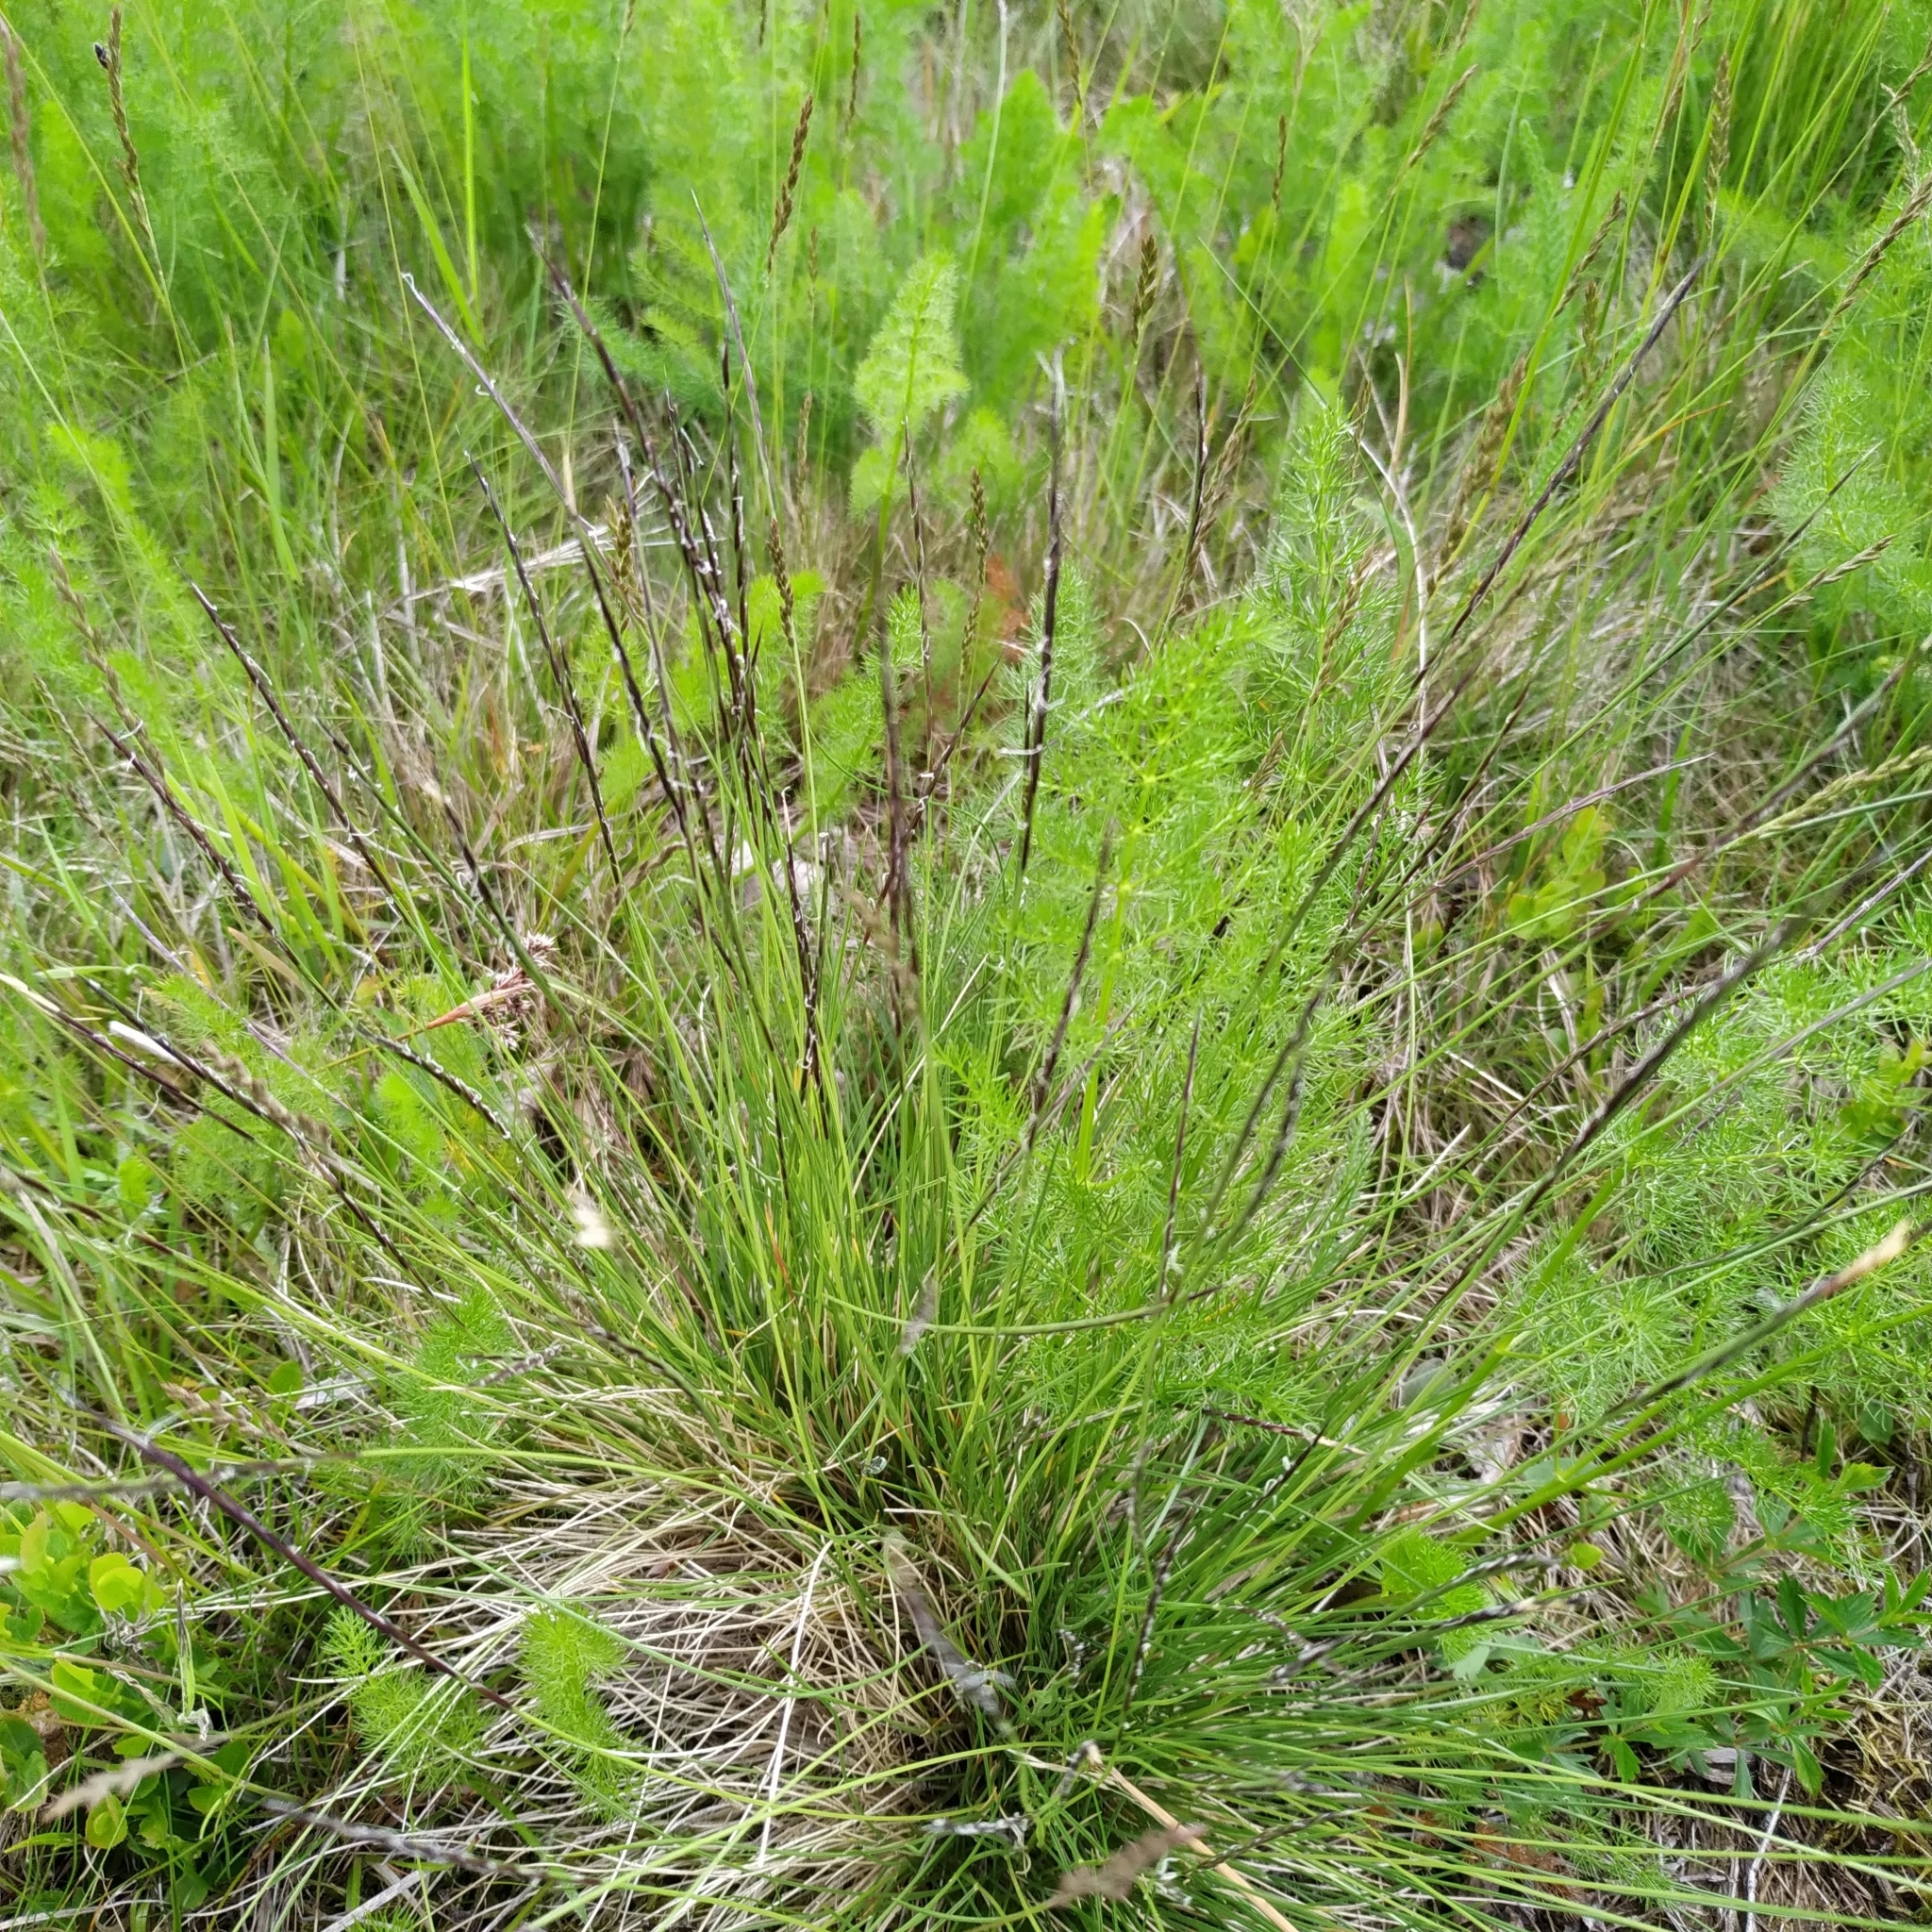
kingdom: Plantae
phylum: Tracheophyta
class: Liliopsida
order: Poales
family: Poaceae
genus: Nardus
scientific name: Nardus stricta
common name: Mat-grass
